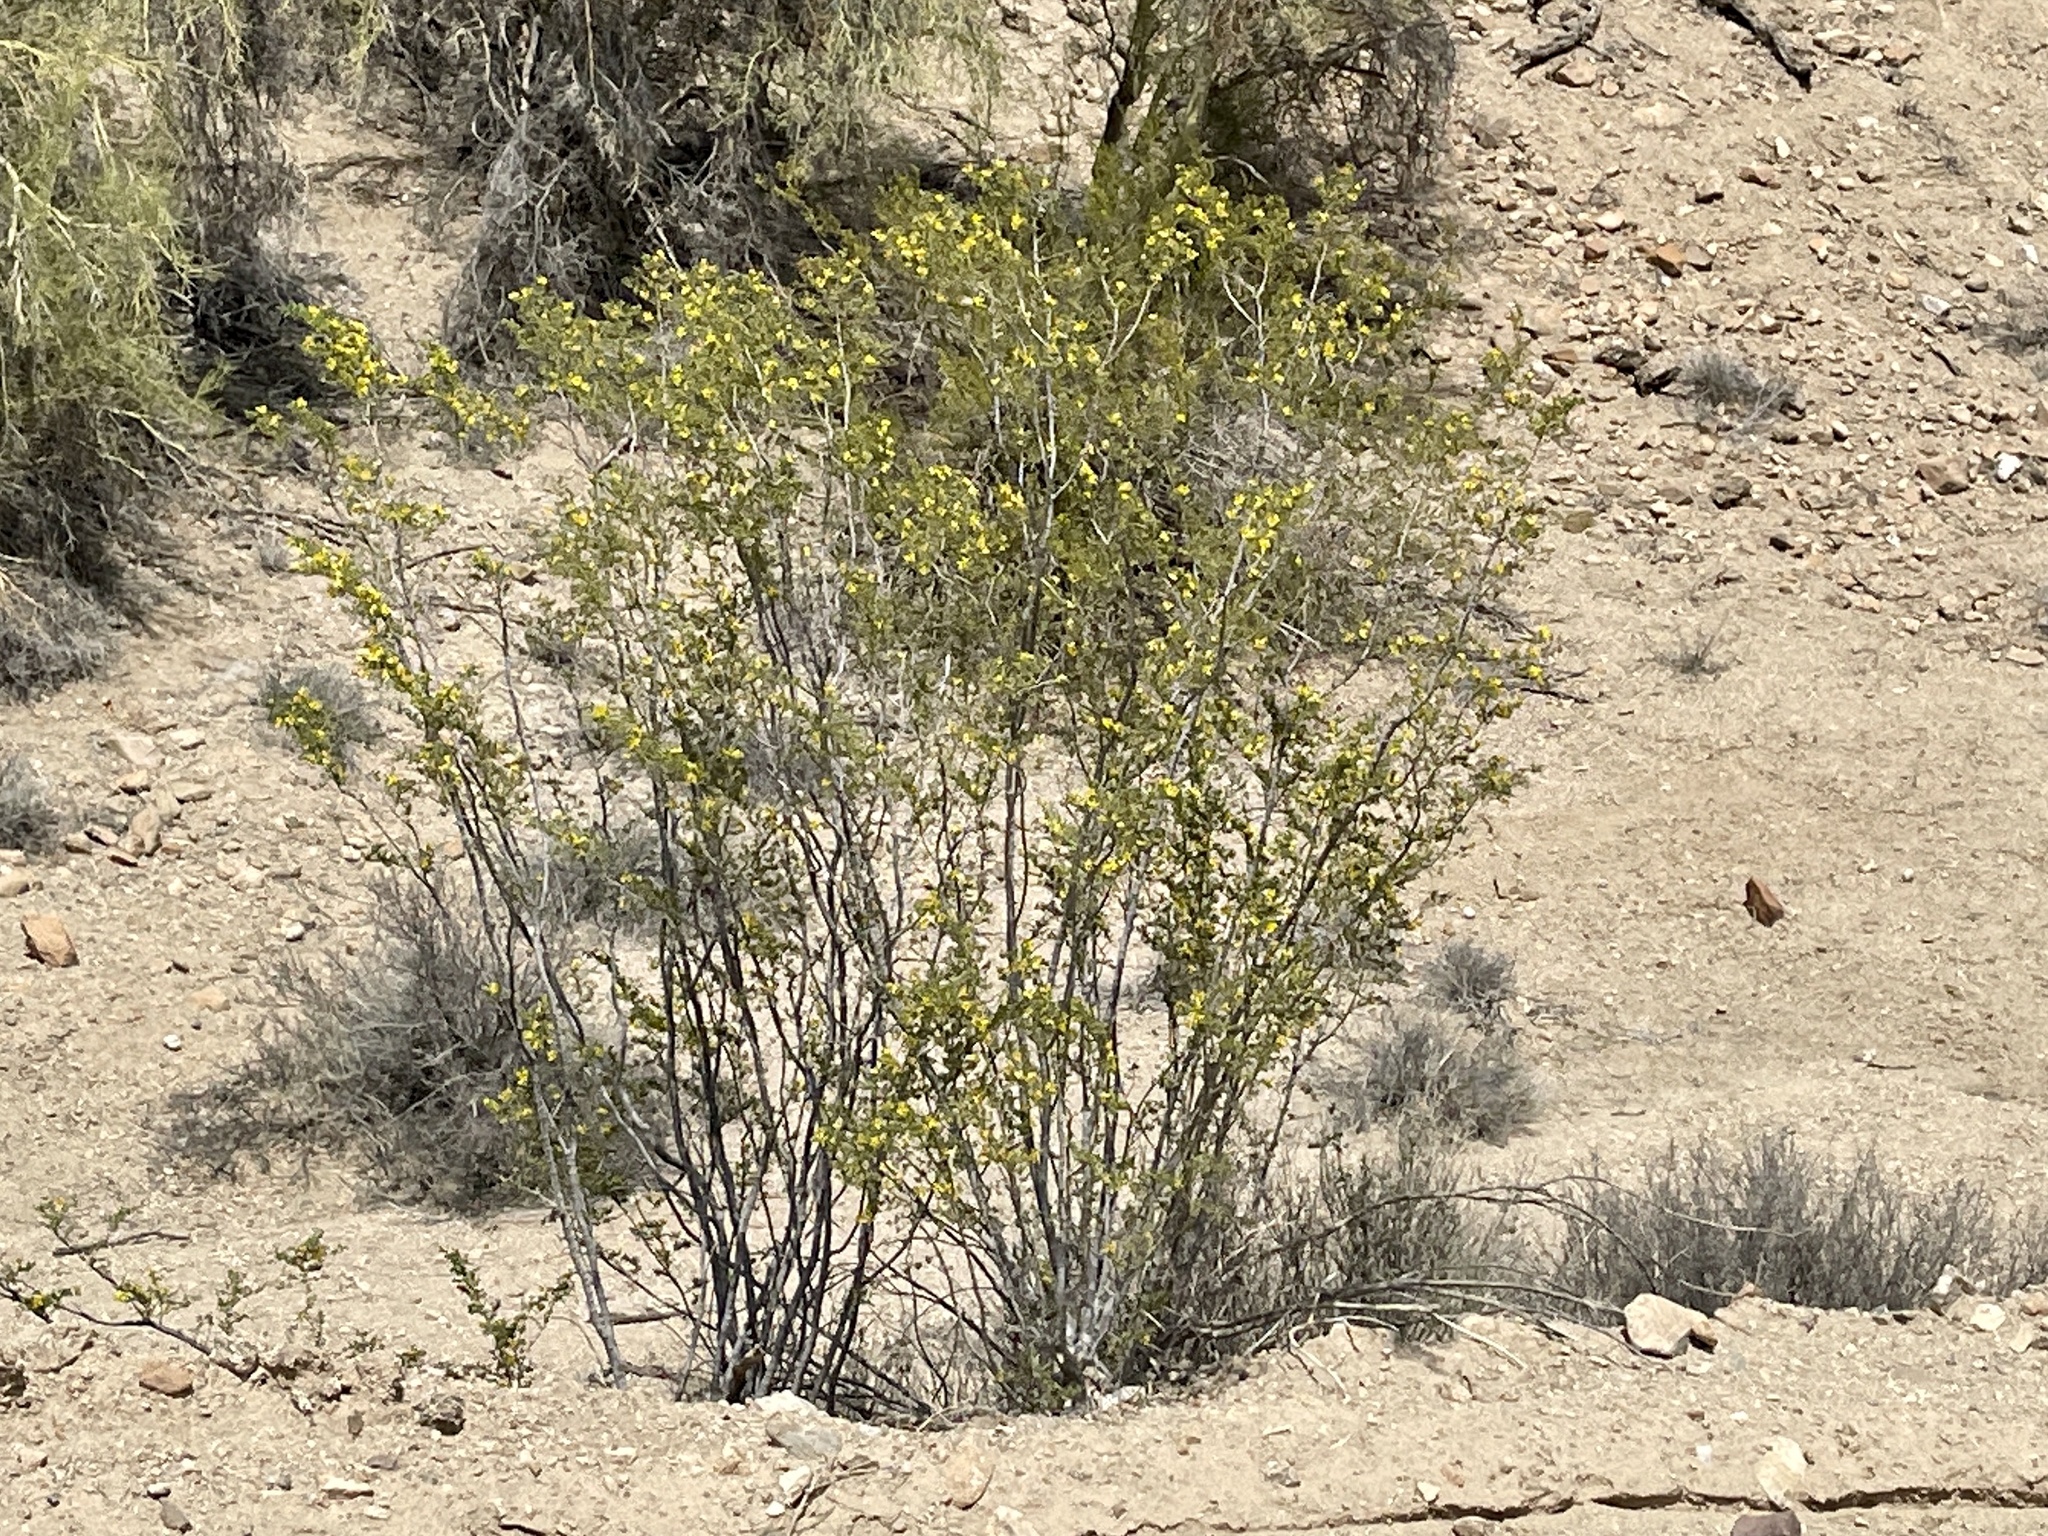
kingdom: Plantae
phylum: Tracheophyta
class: Magnoliopsida
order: Zygophyllales
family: Zygophyllaceae
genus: Larrea
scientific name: Larrea tridentata
